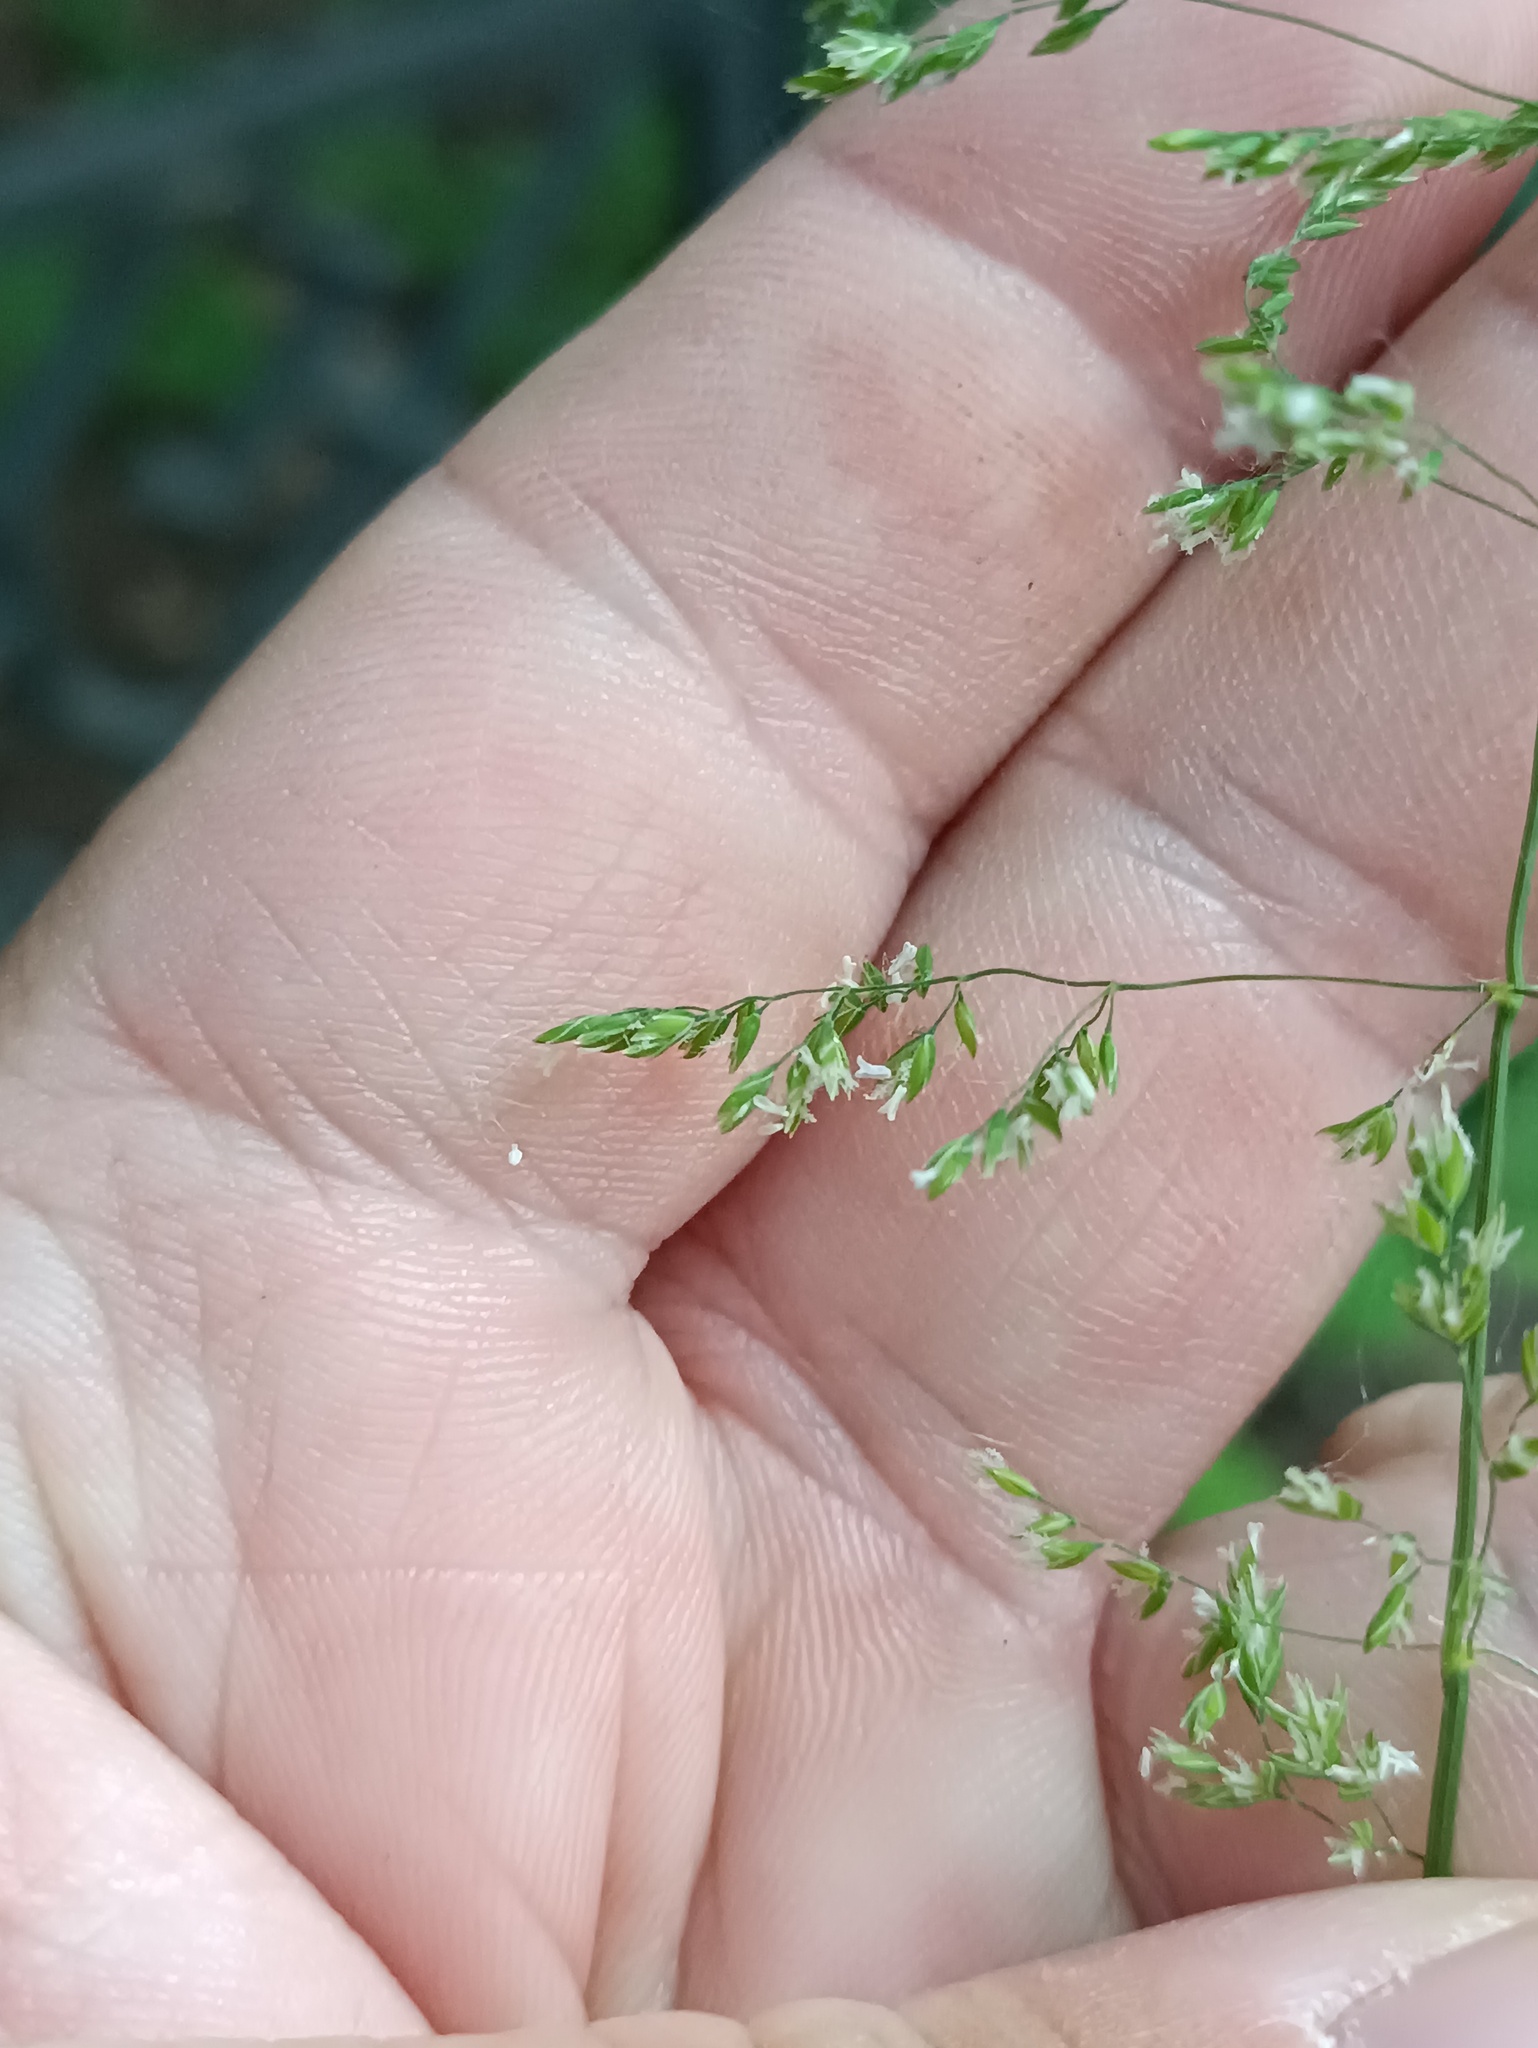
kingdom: Plantae
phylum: Tracheophyta
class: Liliopsida
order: Poales
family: Poaceae
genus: Poa
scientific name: Poa trivialis
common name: Rough bluegrass
